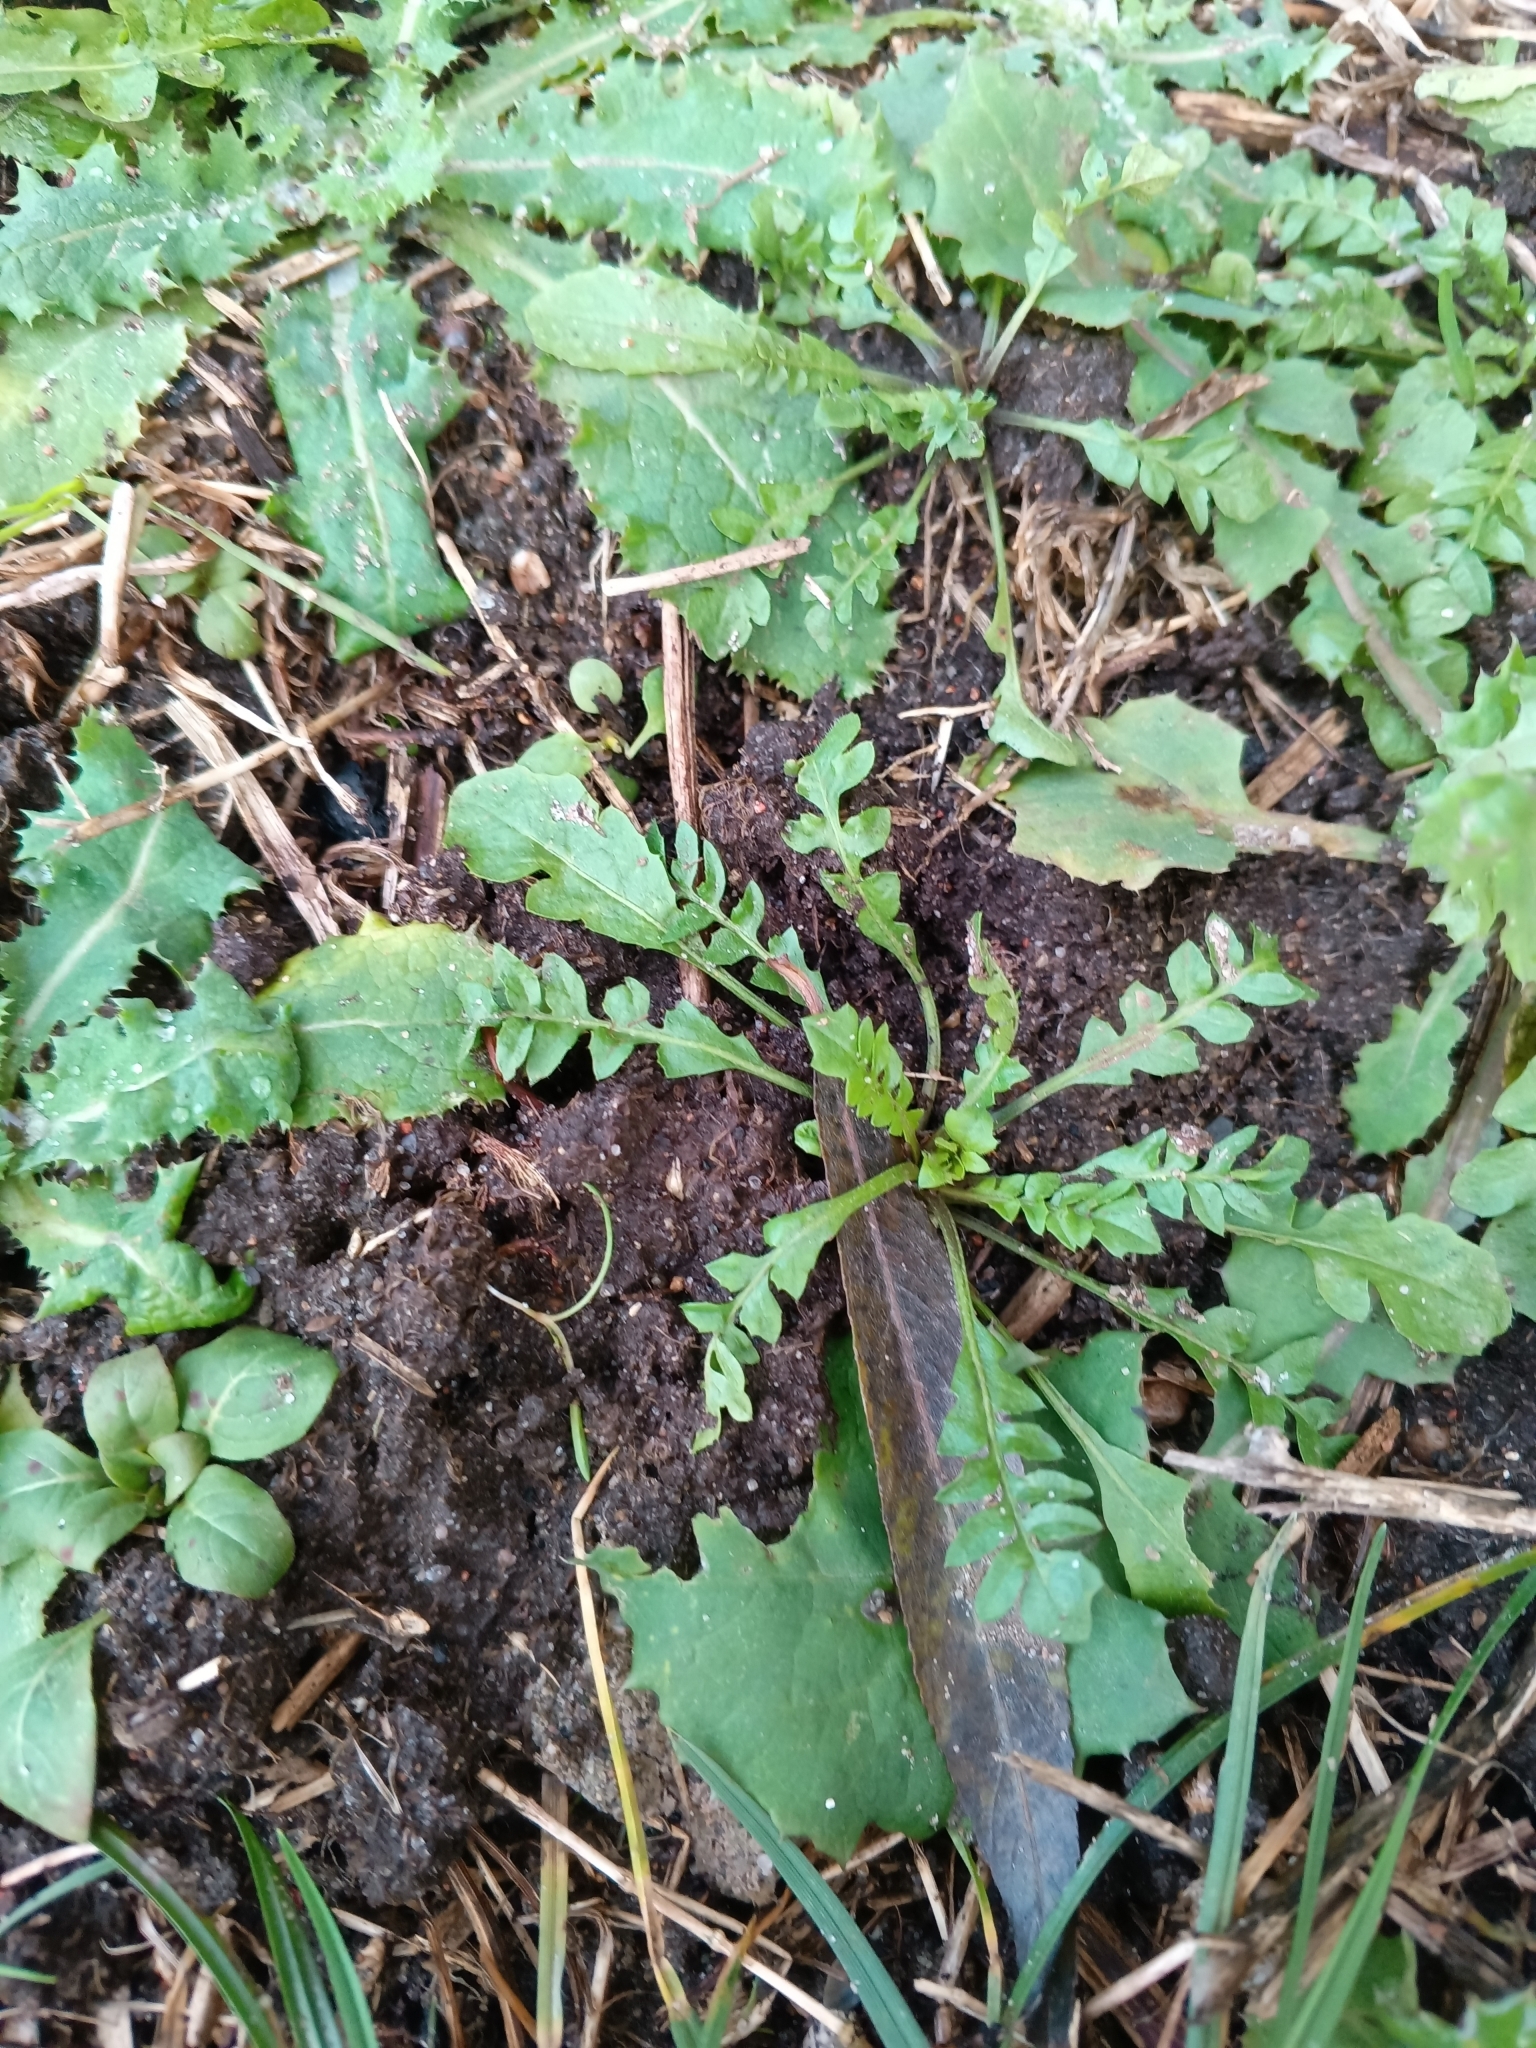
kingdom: Plantae
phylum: Tracheophyta
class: Magnoliopsida
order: Brassicales
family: Brassicaceae
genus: Capsella
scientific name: Capsella bursa-pastoris
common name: Shepherd's purse
